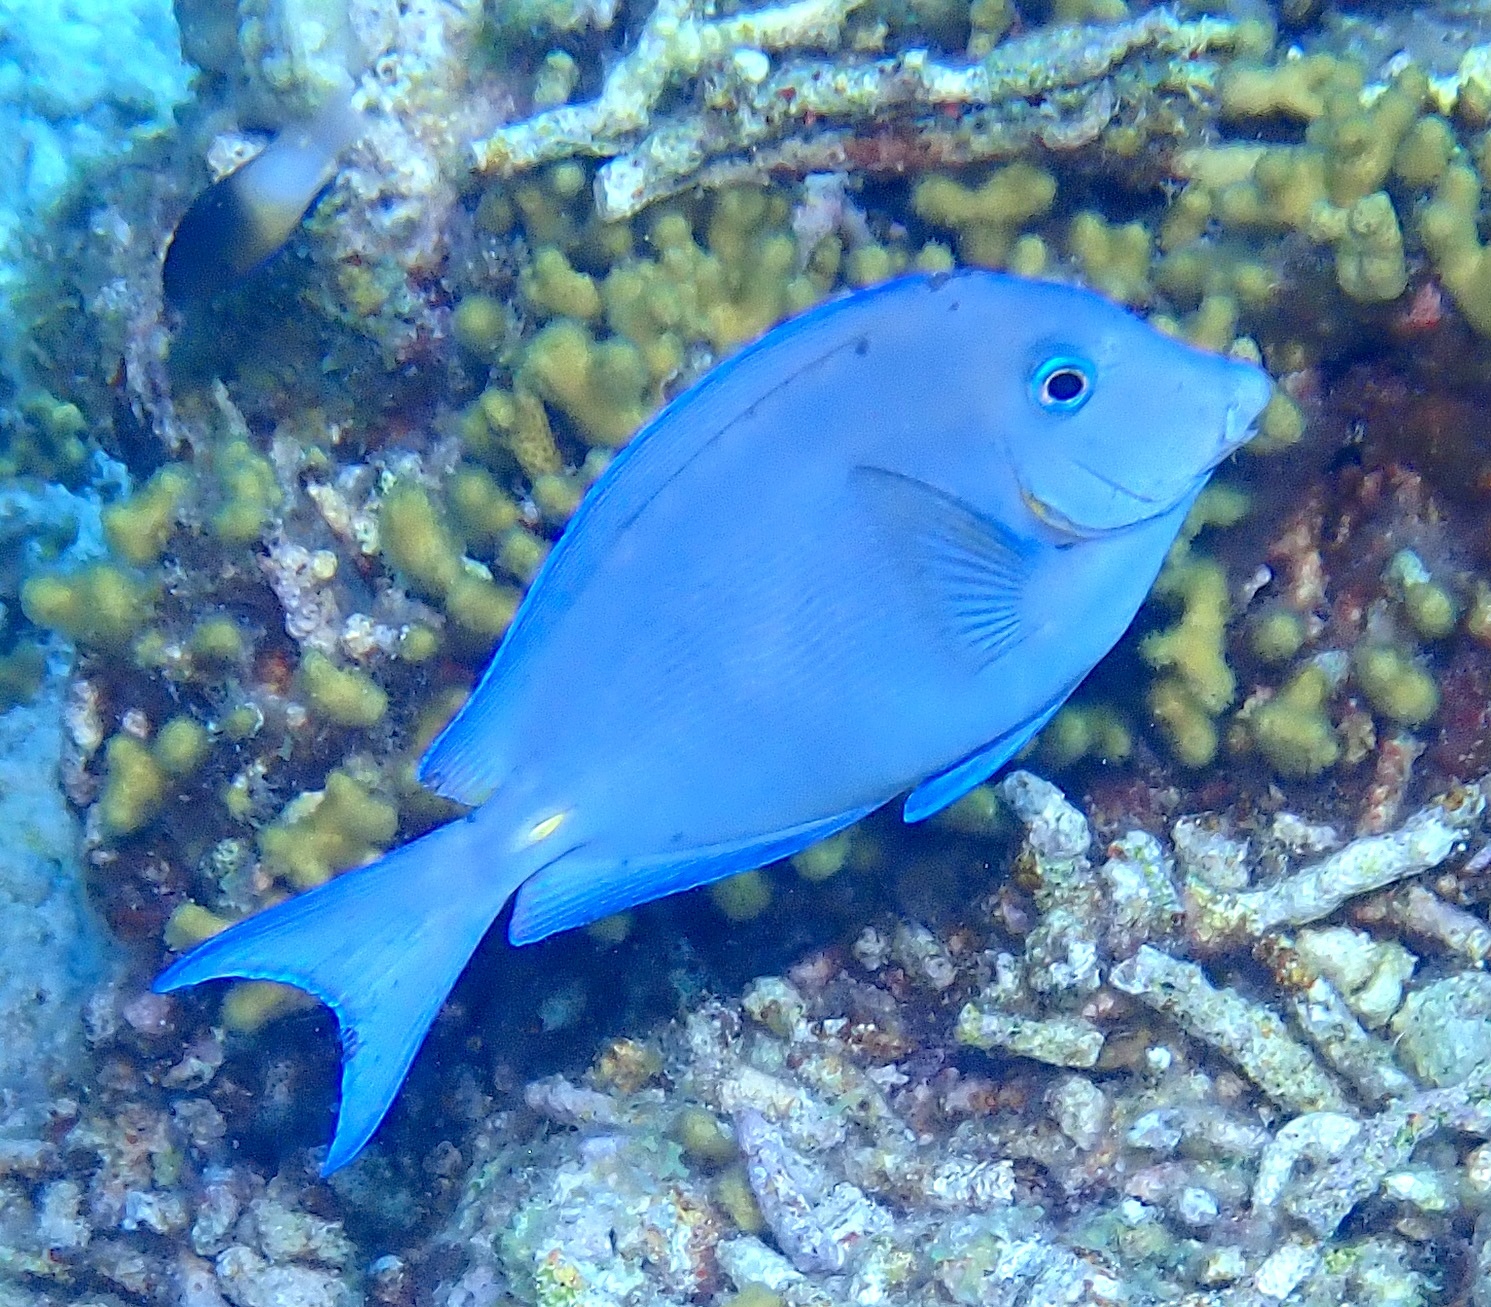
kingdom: Animalia
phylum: Chordata
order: Perciformes
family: Acanthuridae
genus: Acanthurus
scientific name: Acanthurus coeruleus
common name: Blue tang
